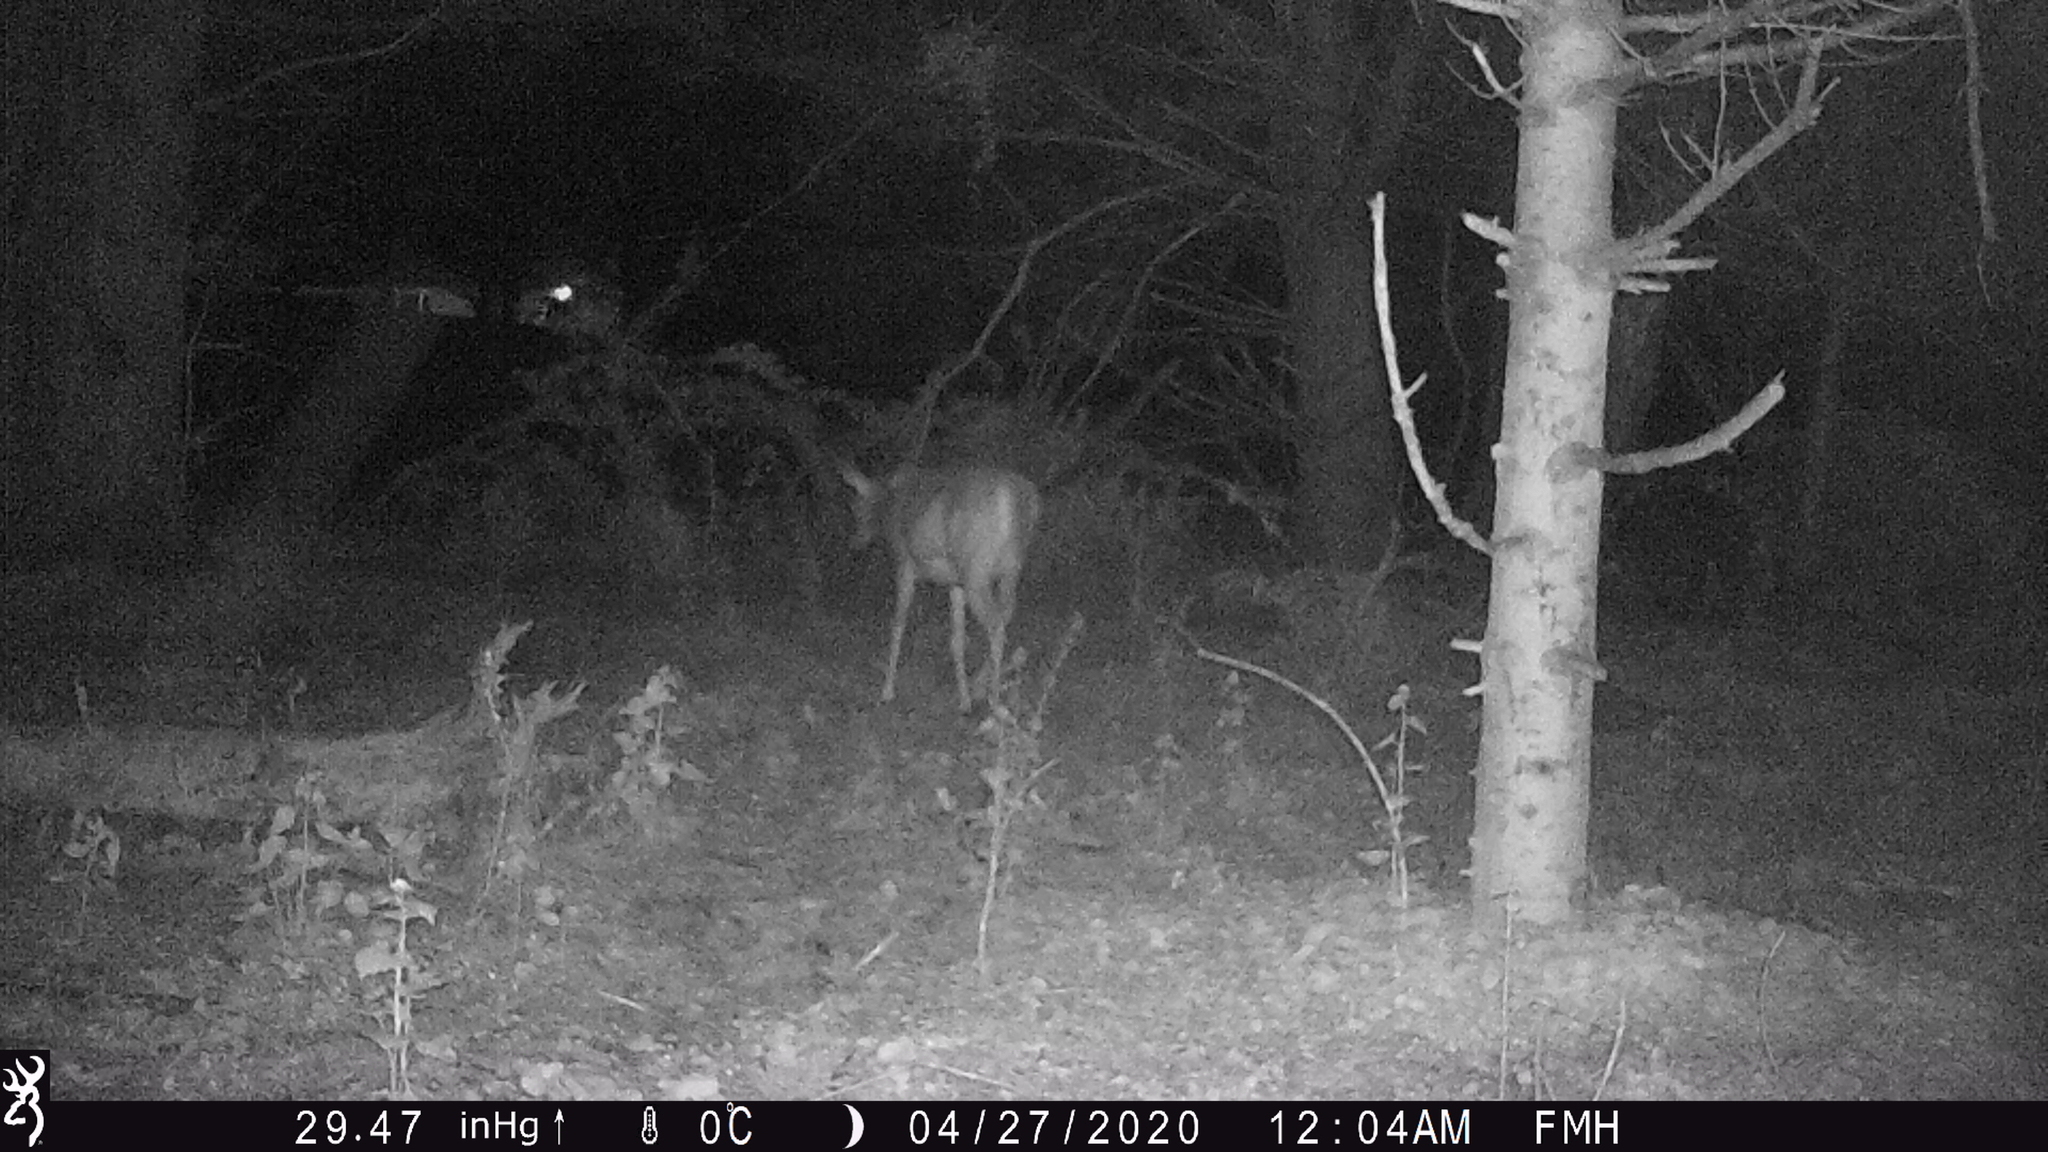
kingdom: Animalia
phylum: Chordata
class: Mammalia
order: Artiodactyla
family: Cervidae
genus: Odocoileus
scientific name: Odocoileus virginianus
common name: White-tailed deer
